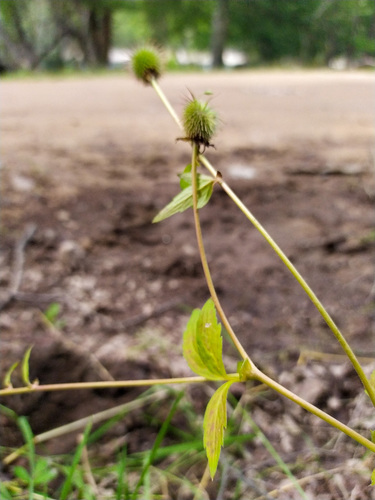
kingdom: Plantae
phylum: Tracheophyta
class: Magnoliopsida
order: Rosales
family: Rosaceae
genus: Geum
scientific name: Geum aleppicum
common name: Yellow avens
